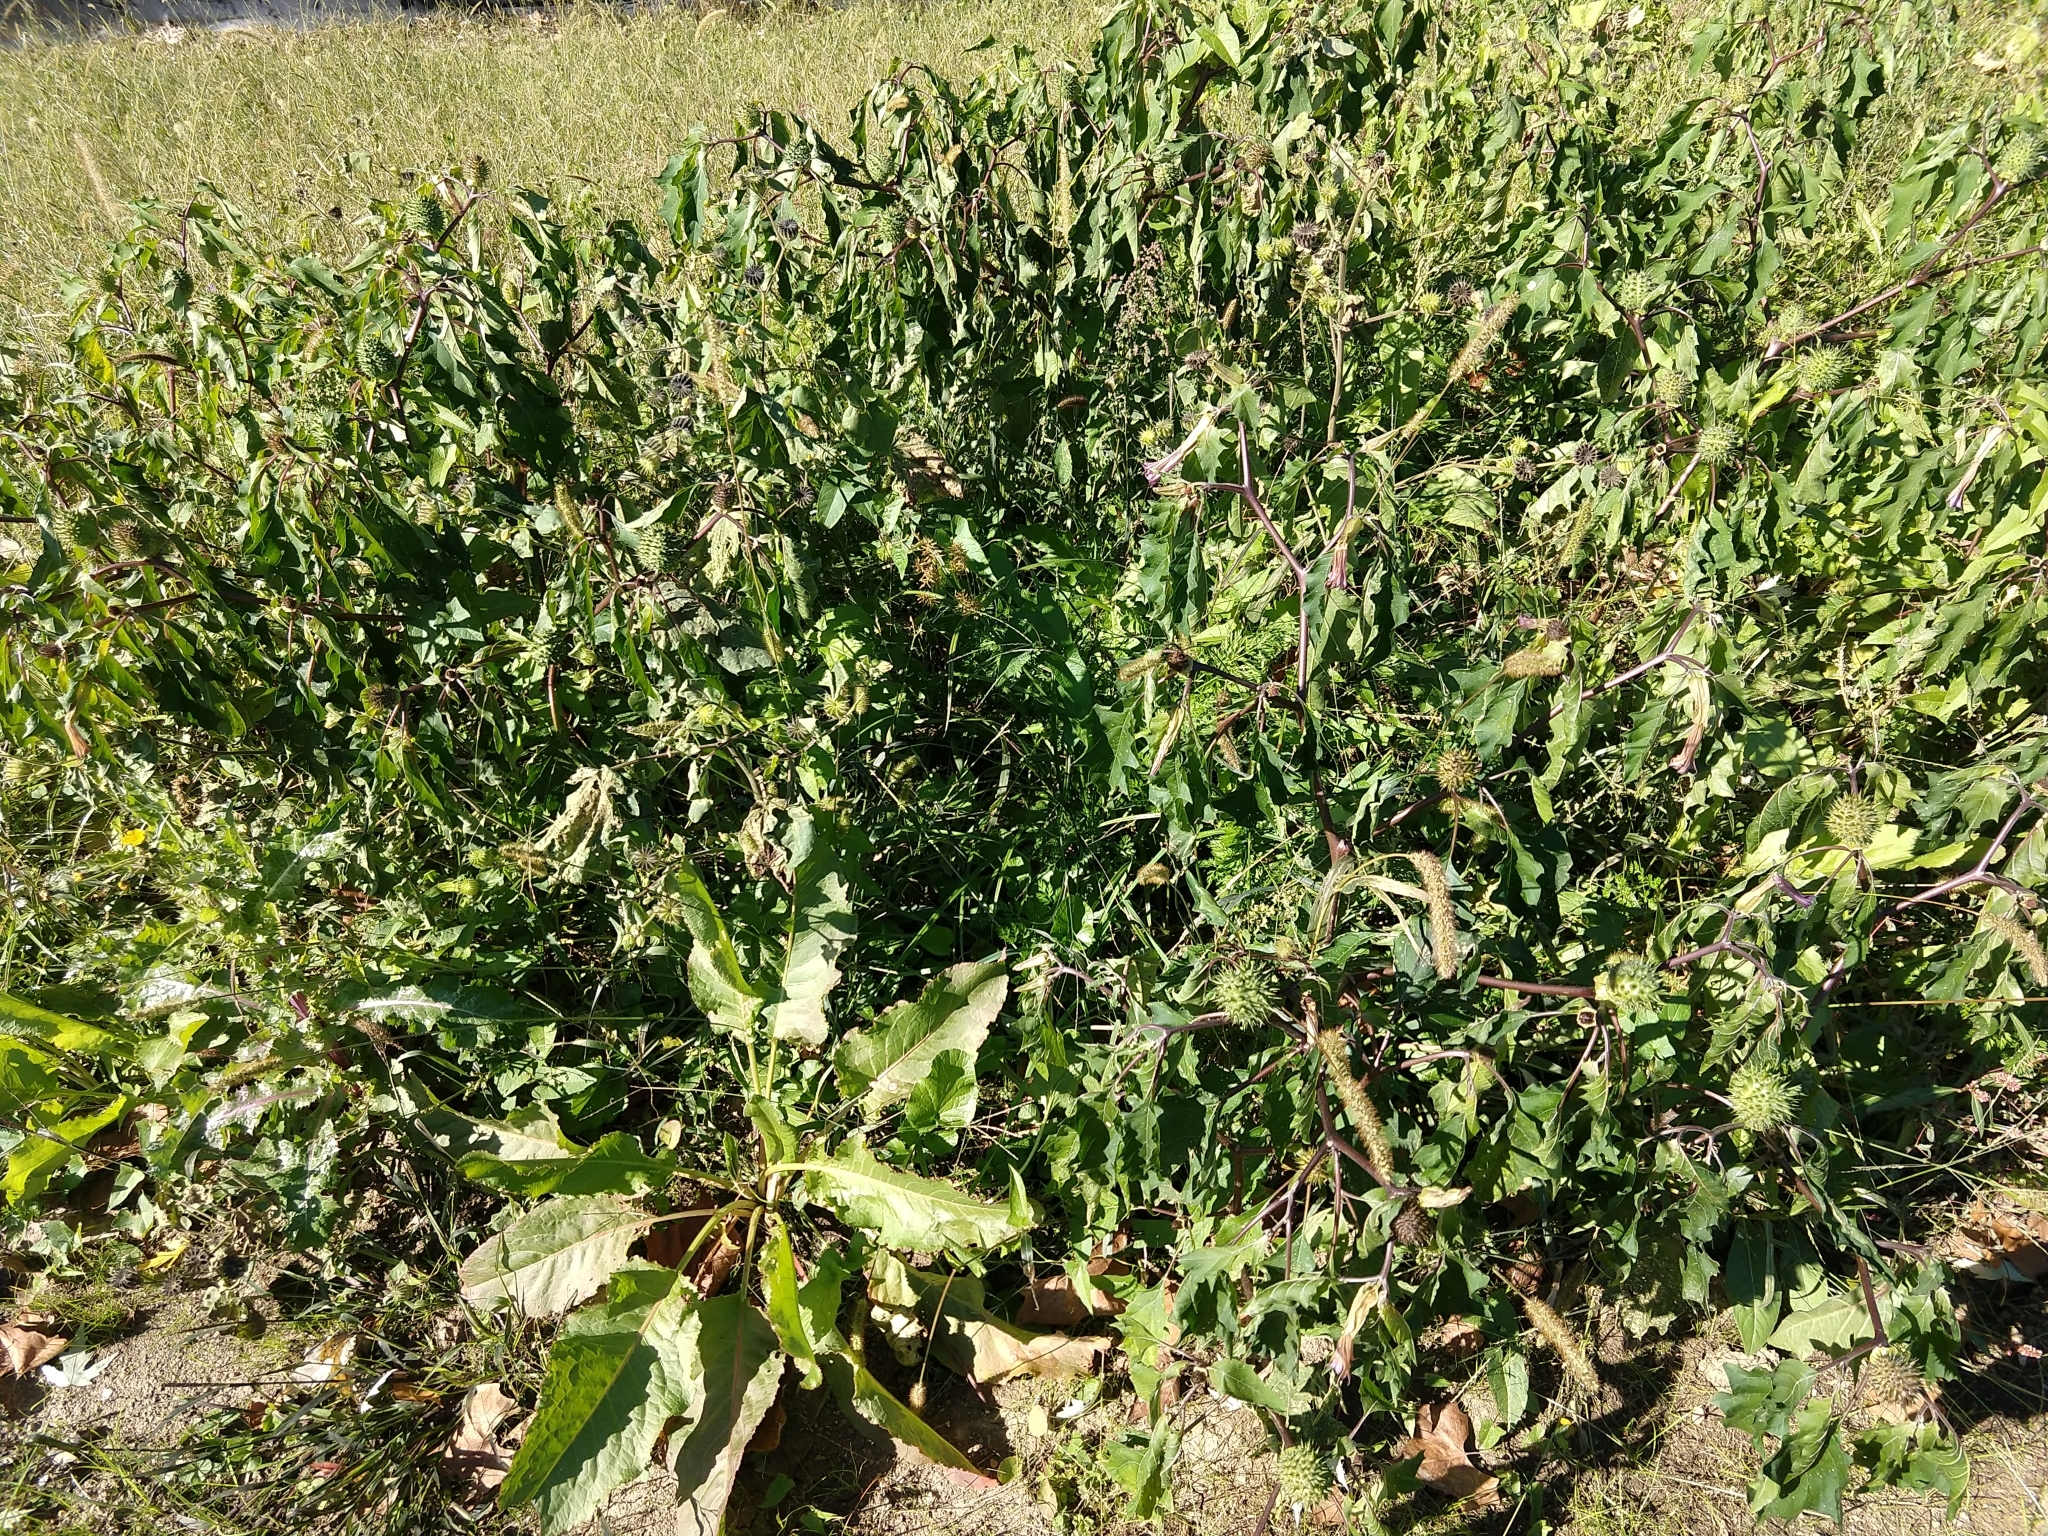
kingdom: Plantae
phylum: Tracheophyta
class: Magnoliopsida
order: Solanales
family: Solanaceae
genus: Datura
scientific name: Datura stramonium
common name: Thorn-apple
